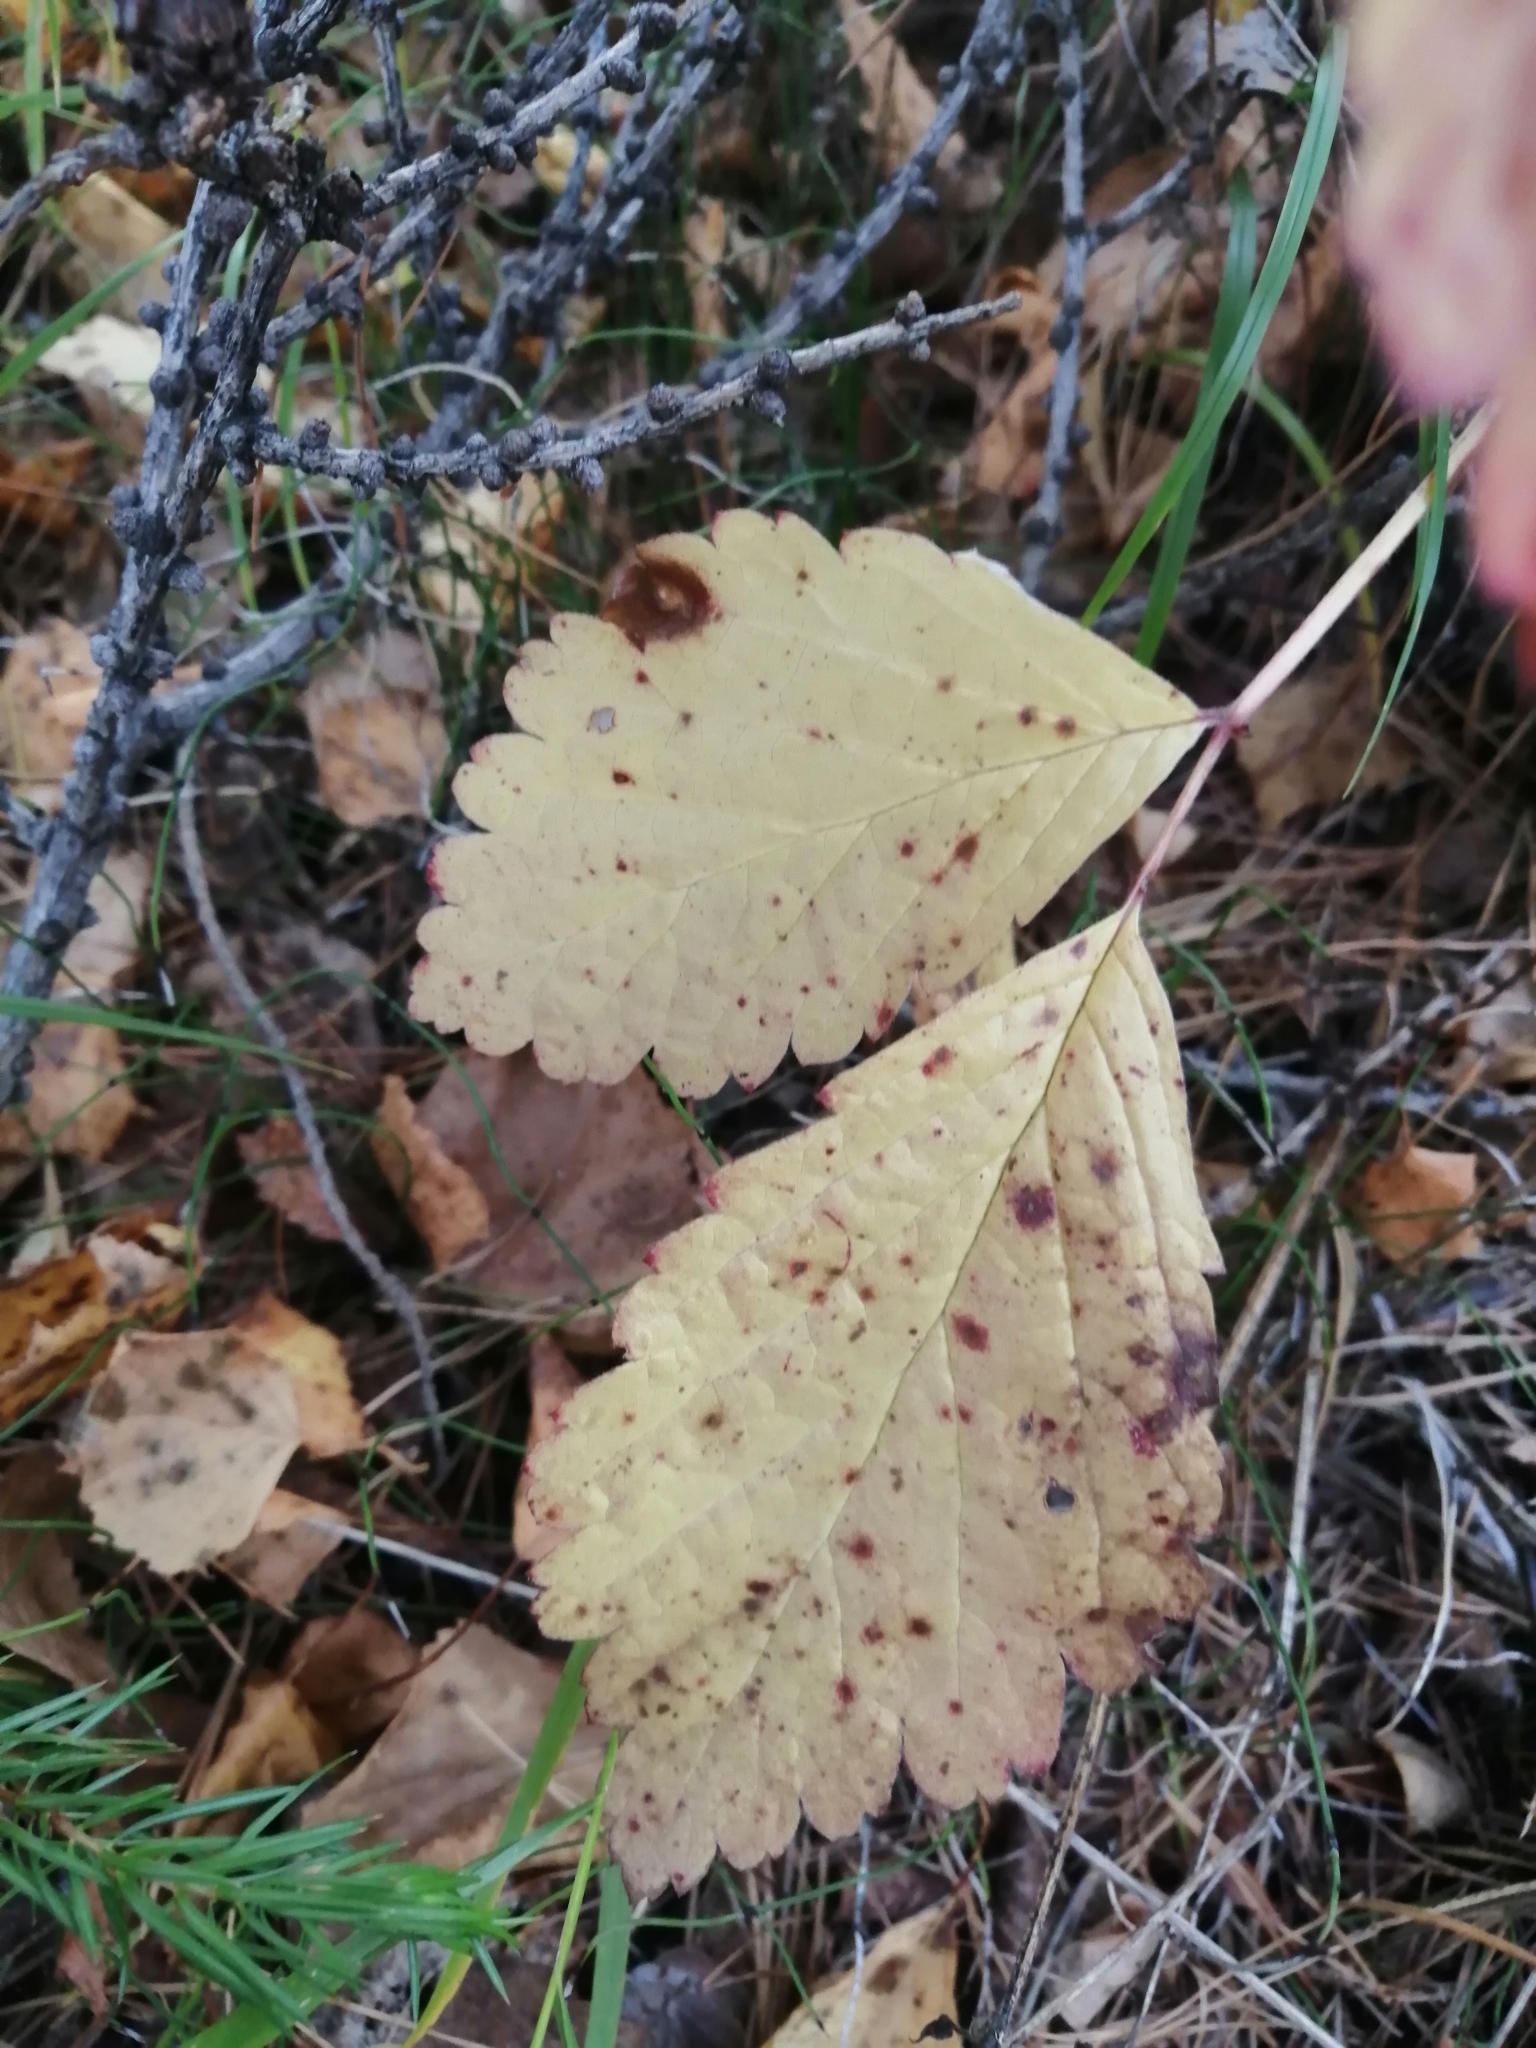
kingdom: Plantae
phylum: Tracheophyta
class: Magnoliopsida
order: Rosales
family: Rosaceae
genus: Rubus
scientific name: Rubus saxatilis
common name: Stone bramble
